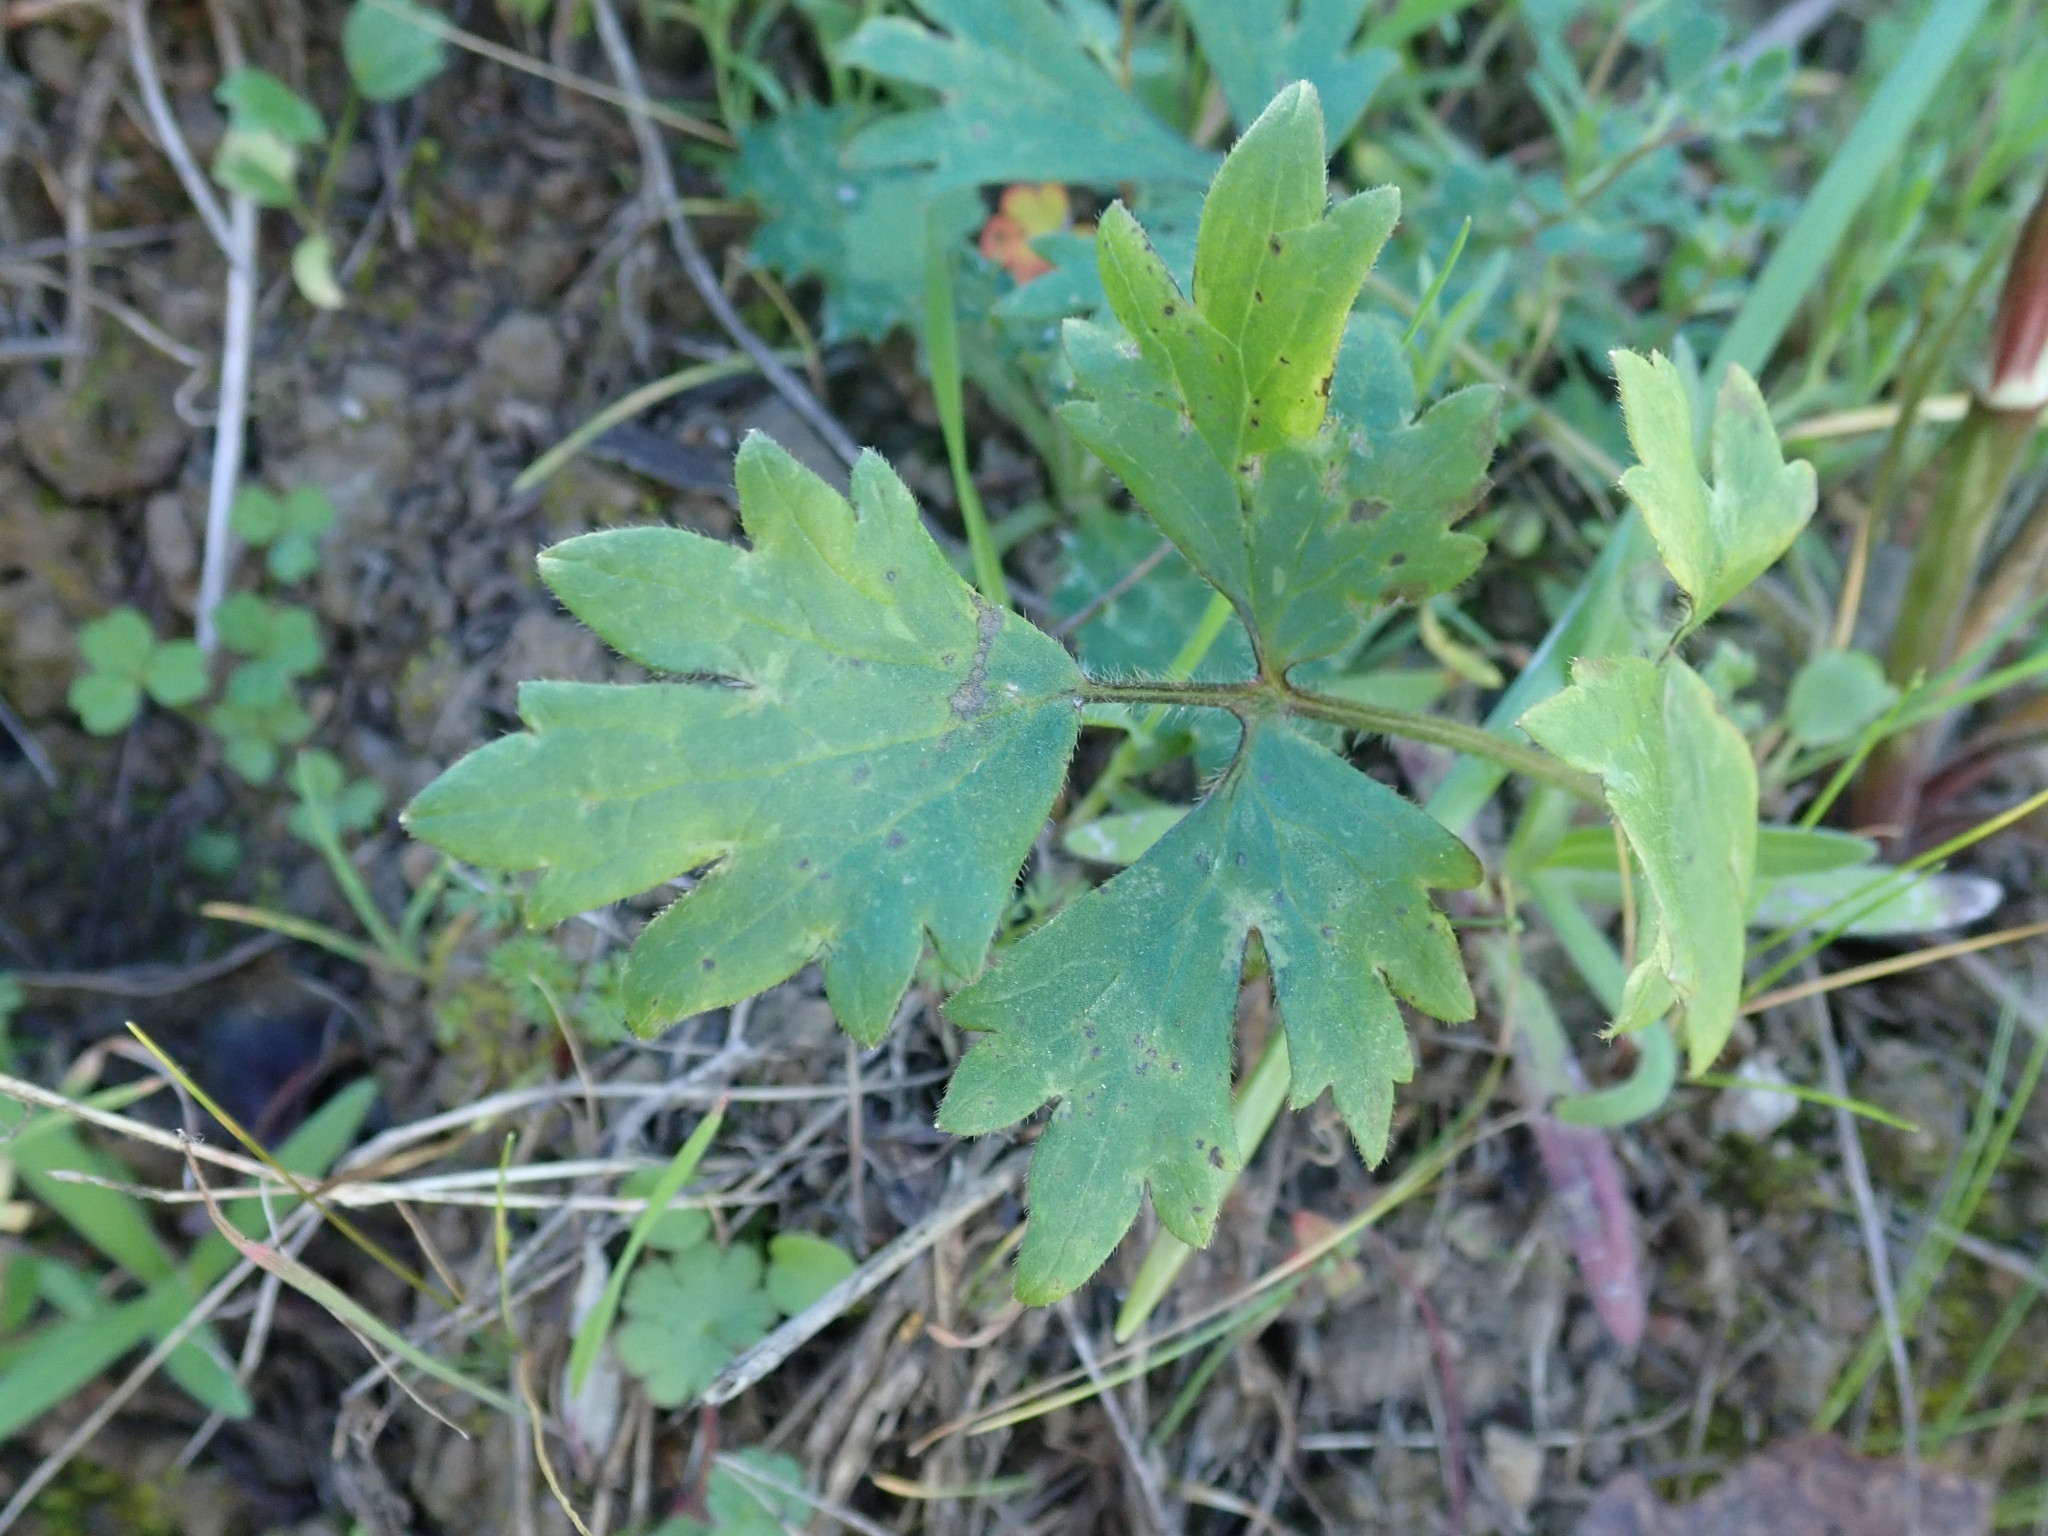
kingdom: Plantae
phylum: Tracheophyta
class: Magnoliopsida
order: Ranunculales
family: Ranunculaceae
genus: Ranunculus
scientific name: Ranunculus californicus
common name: California buttercup
